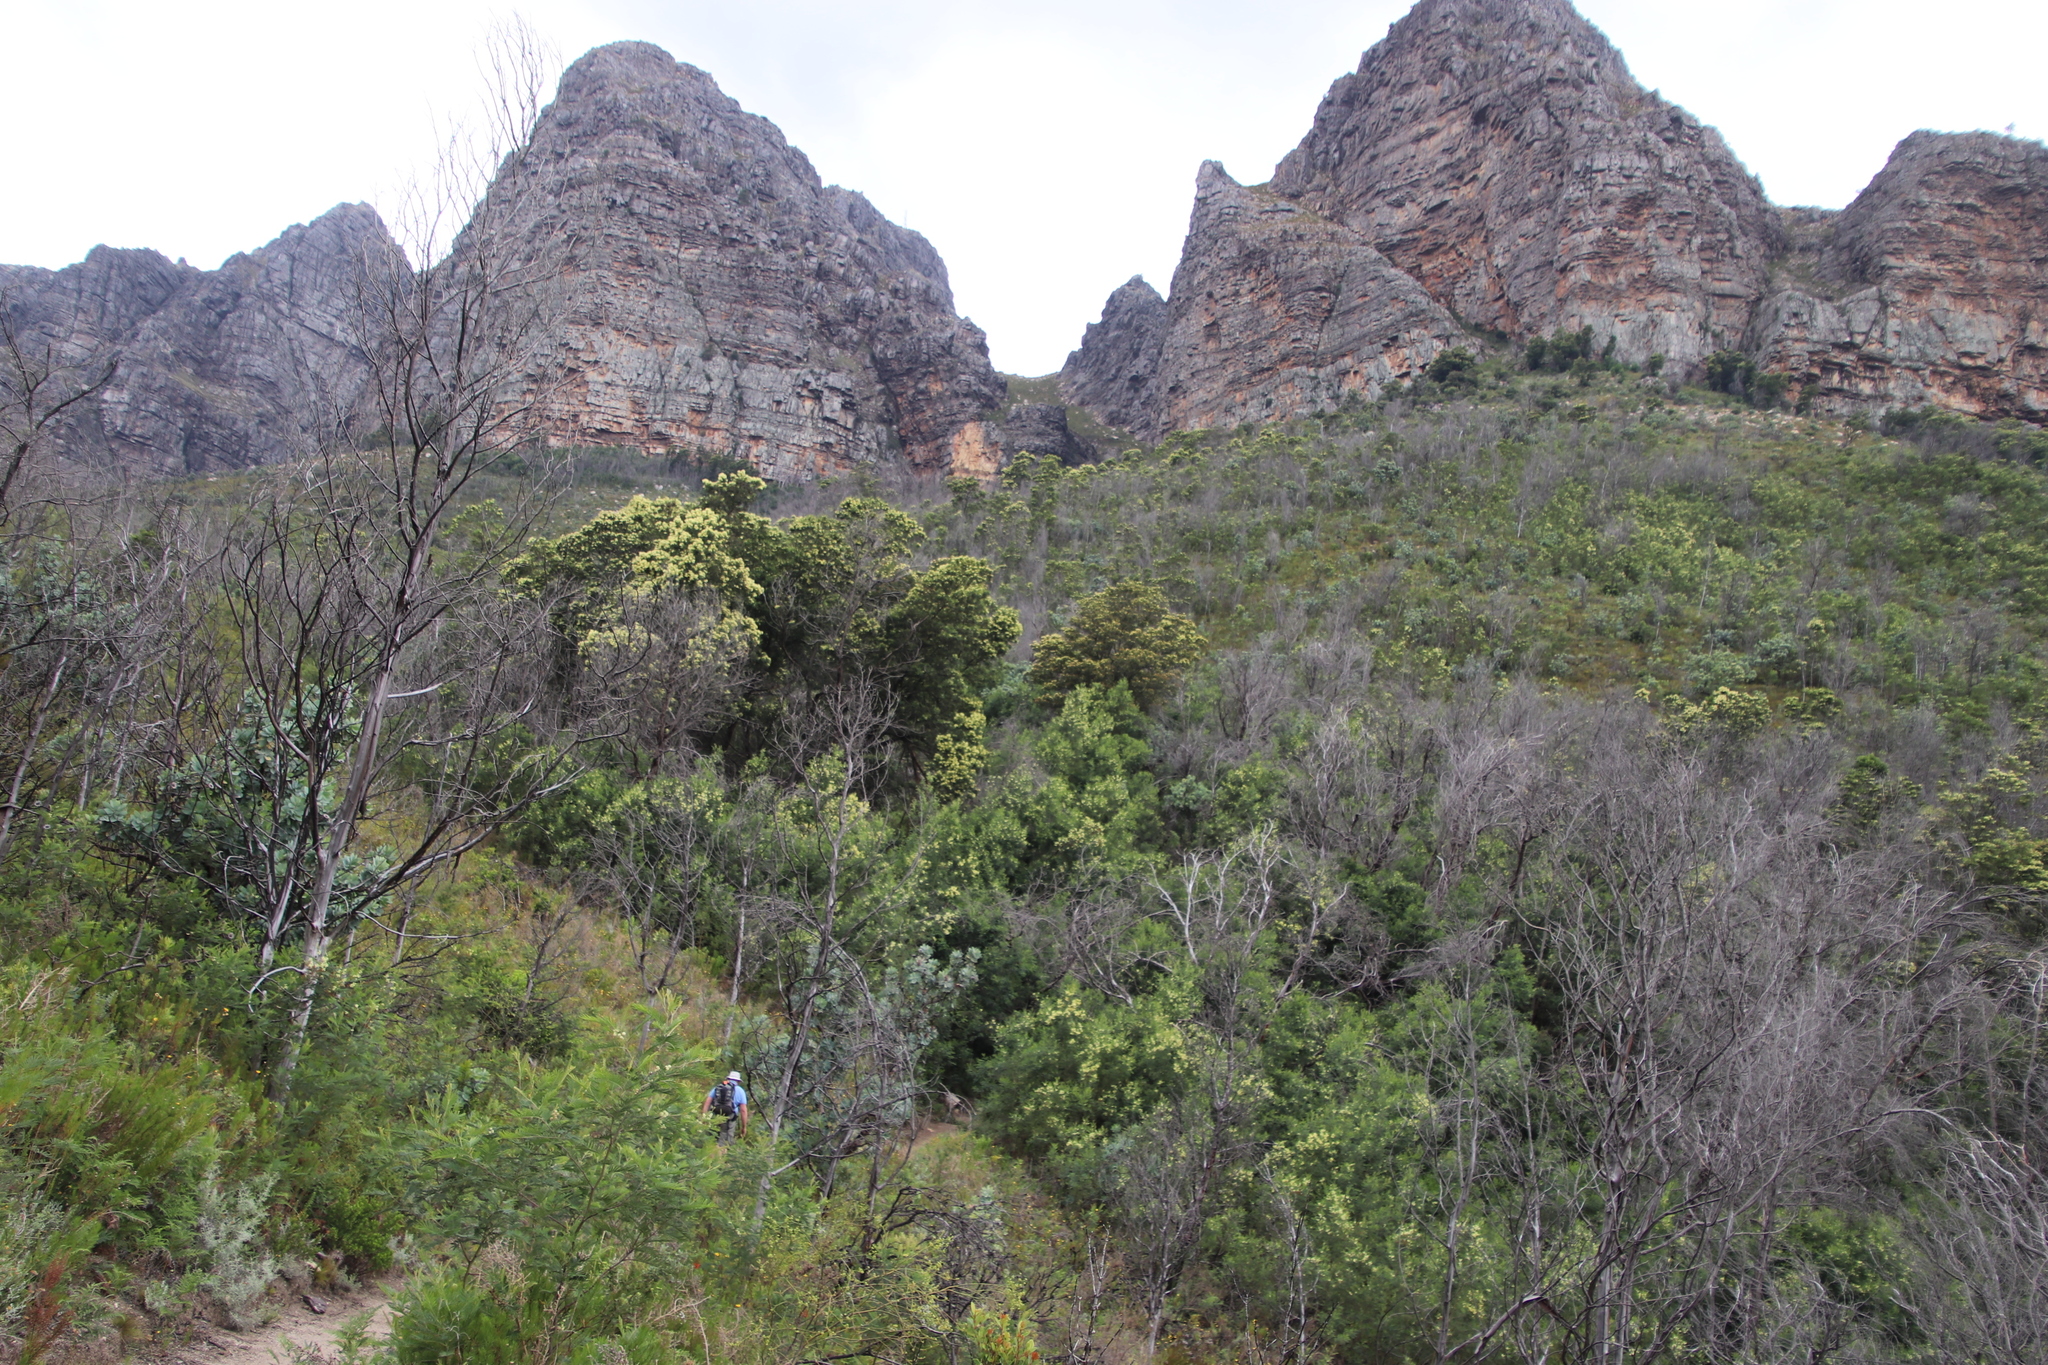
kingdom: Plantae
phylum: Tracheophyta
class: Magnoliopsida
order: Fabales
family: Fabaceae
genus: Acacia
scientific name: Acacia mearnsii
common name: Black wattle
